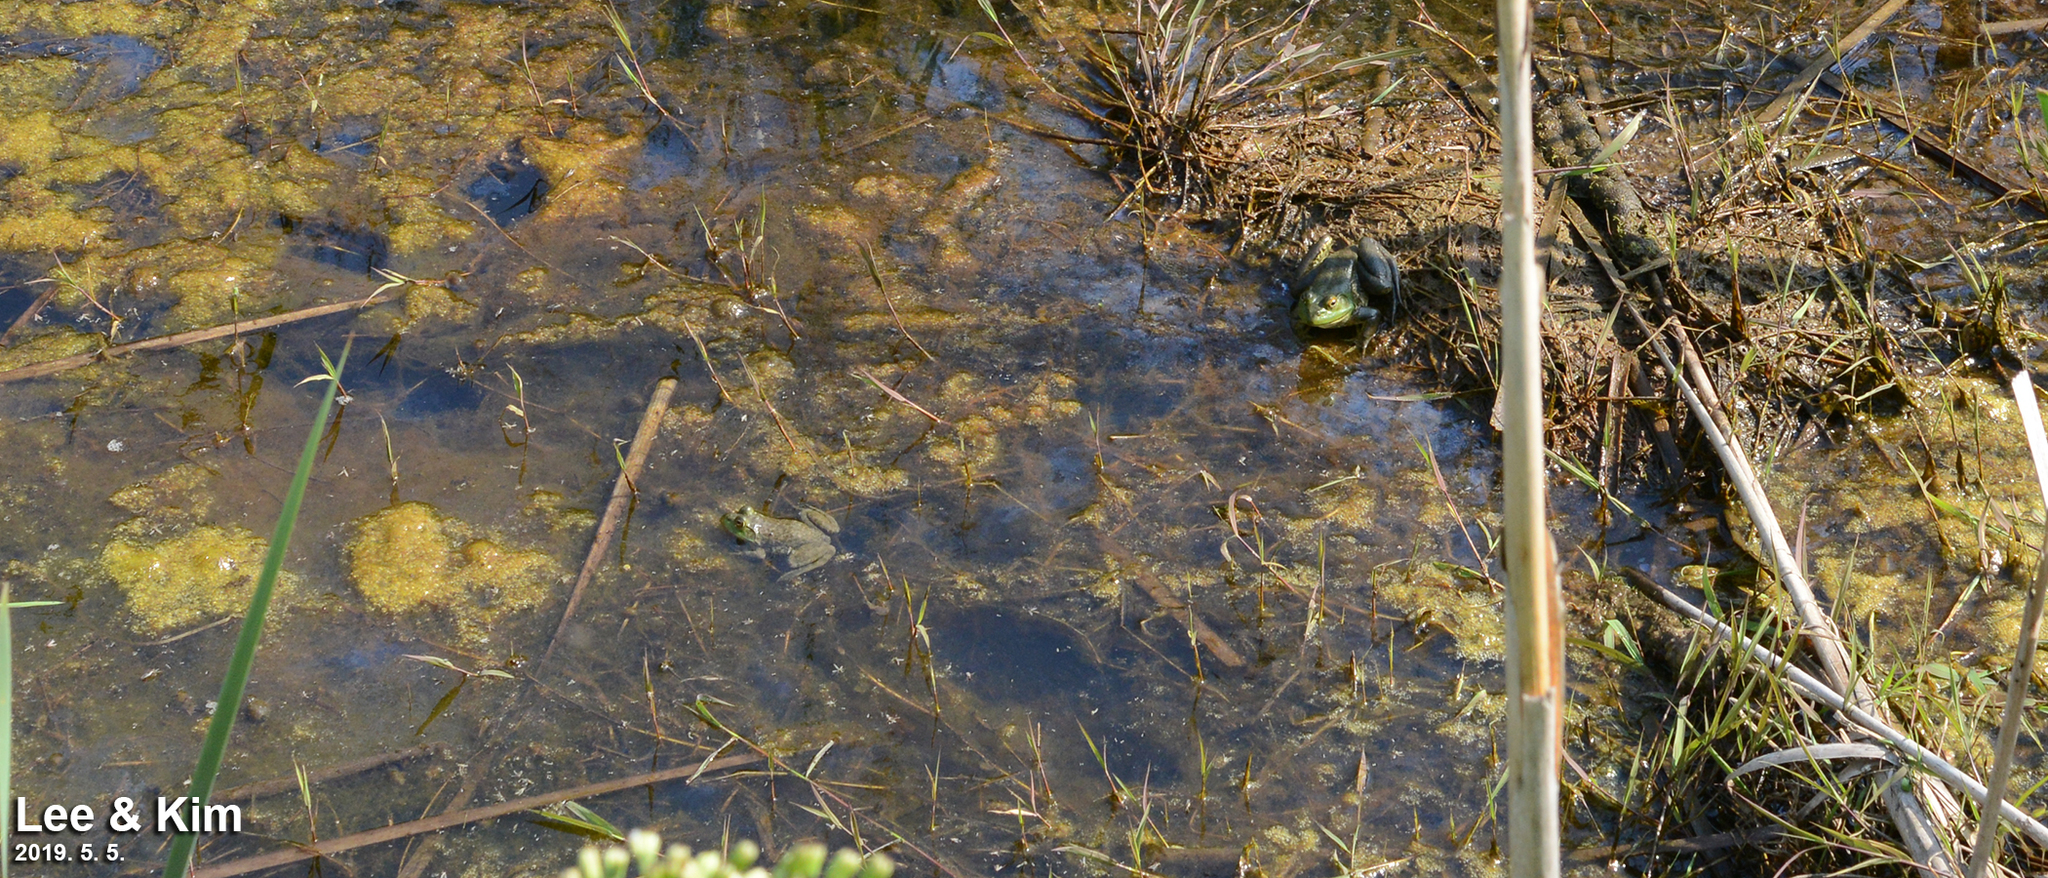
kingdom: Animalia
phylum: Chordata
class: Amphibia
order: Anura
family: Ranidae
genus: Lithobates
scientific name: Lithobates catesbeianus
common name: American bullfrog
